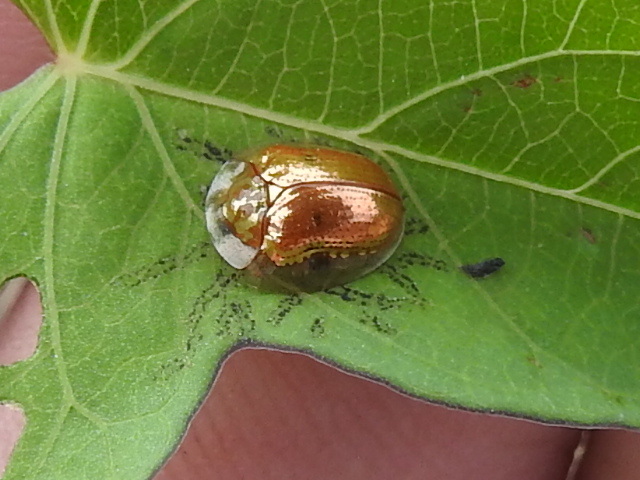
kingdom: Animalia
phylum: Arthropoda
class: Insecta
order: Coleoptera
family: Chrysomelidae
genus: Charidotella
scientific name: Charidotella sexpunctata
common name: Golden tortoise beetle
